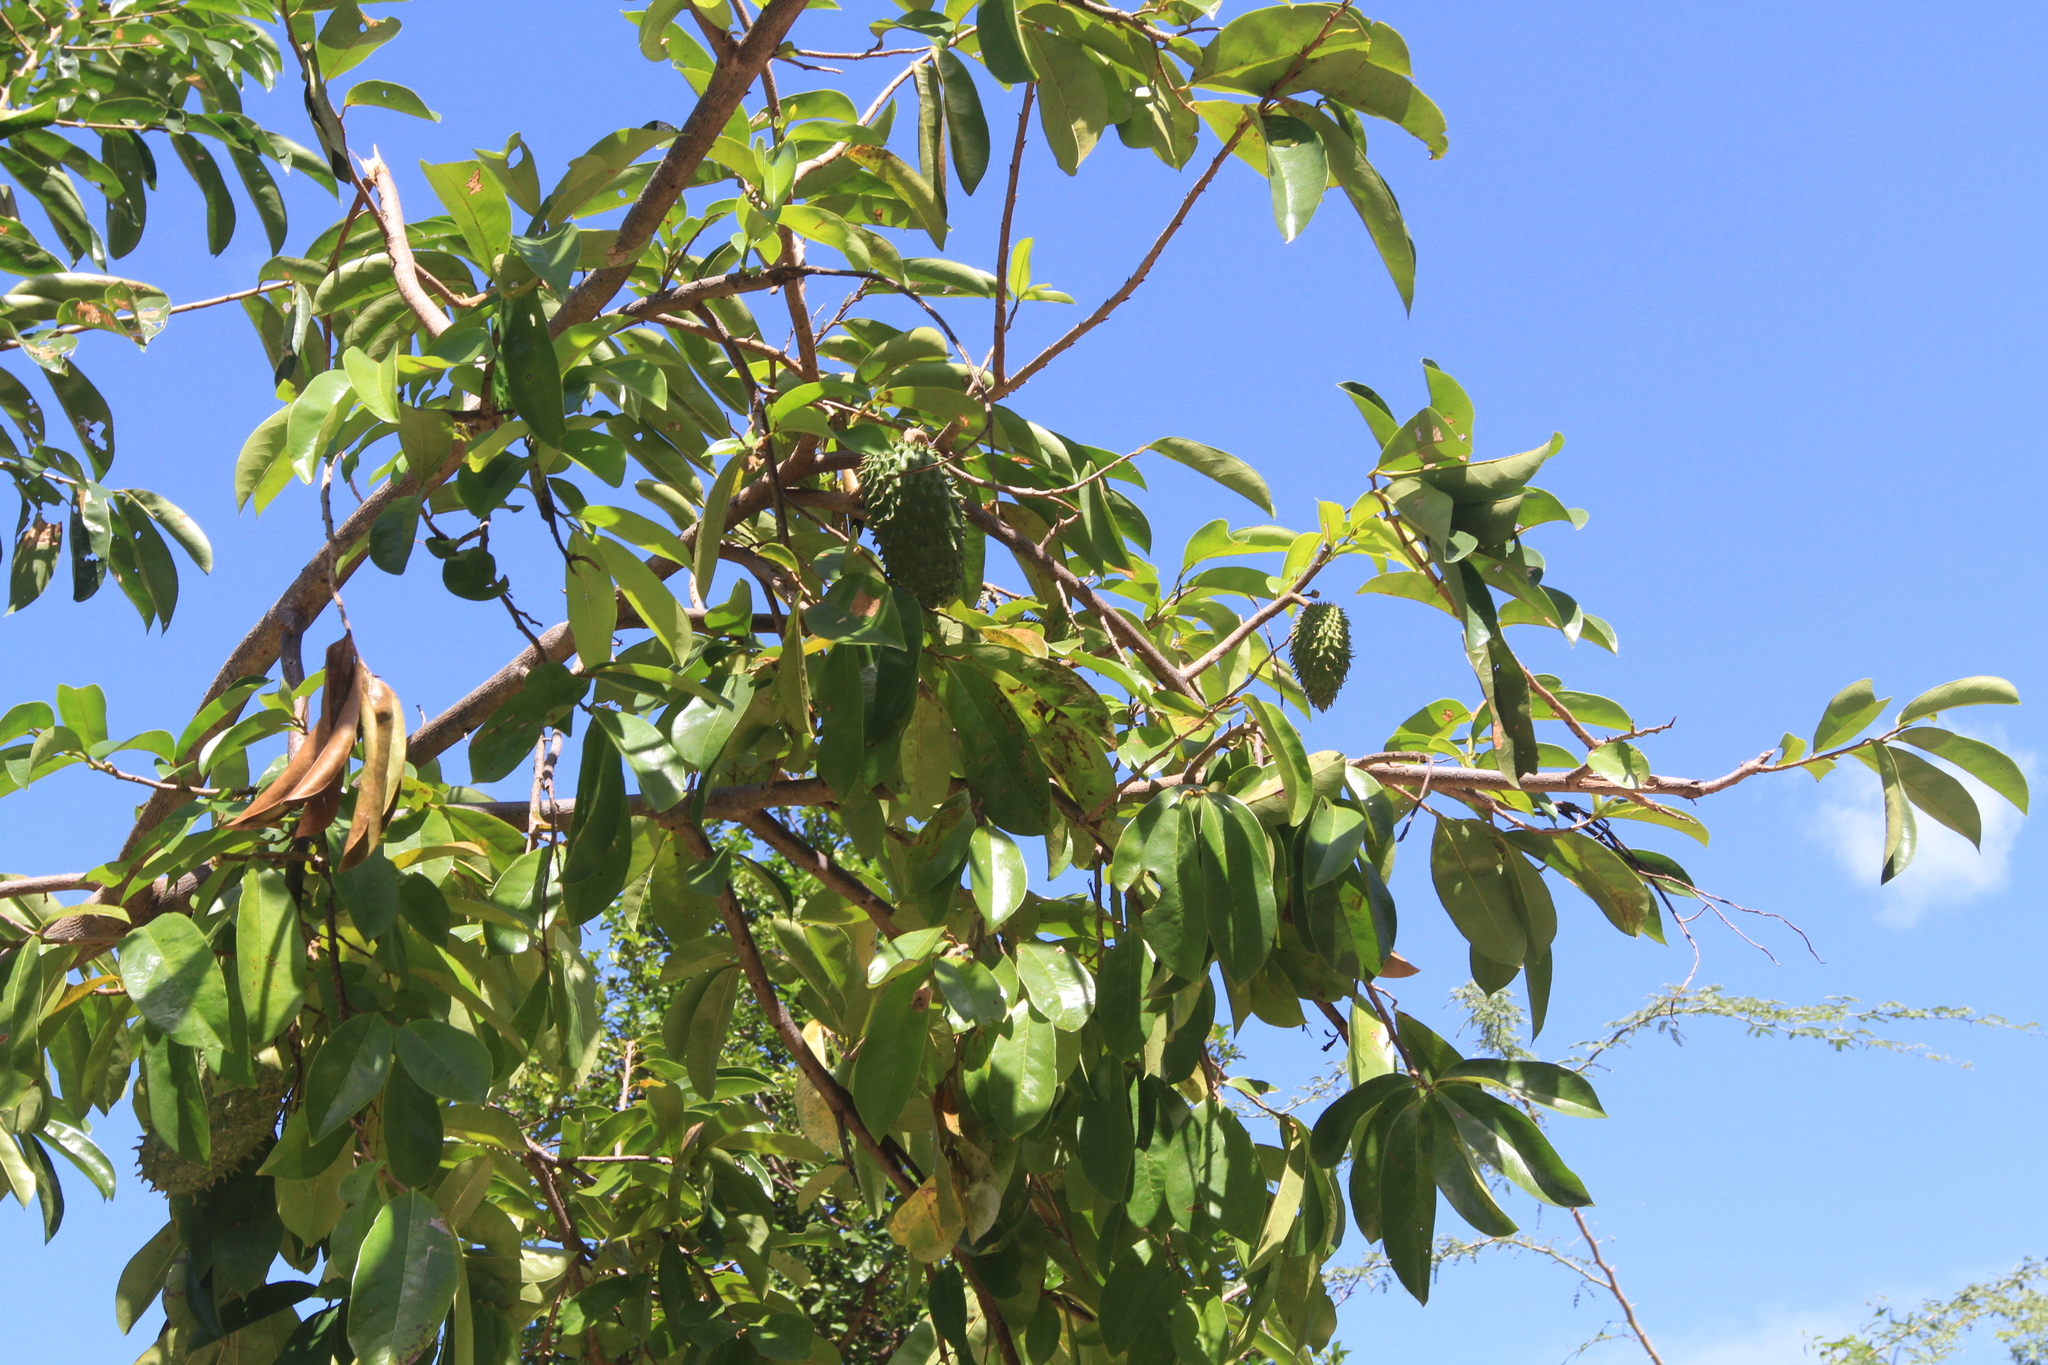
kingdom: Plantae
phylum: Tracheophyta
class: Magnoliopsida
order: Magnoliales
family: Annonaceae
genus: Annona
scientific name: Annona muricata
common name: Soursop
